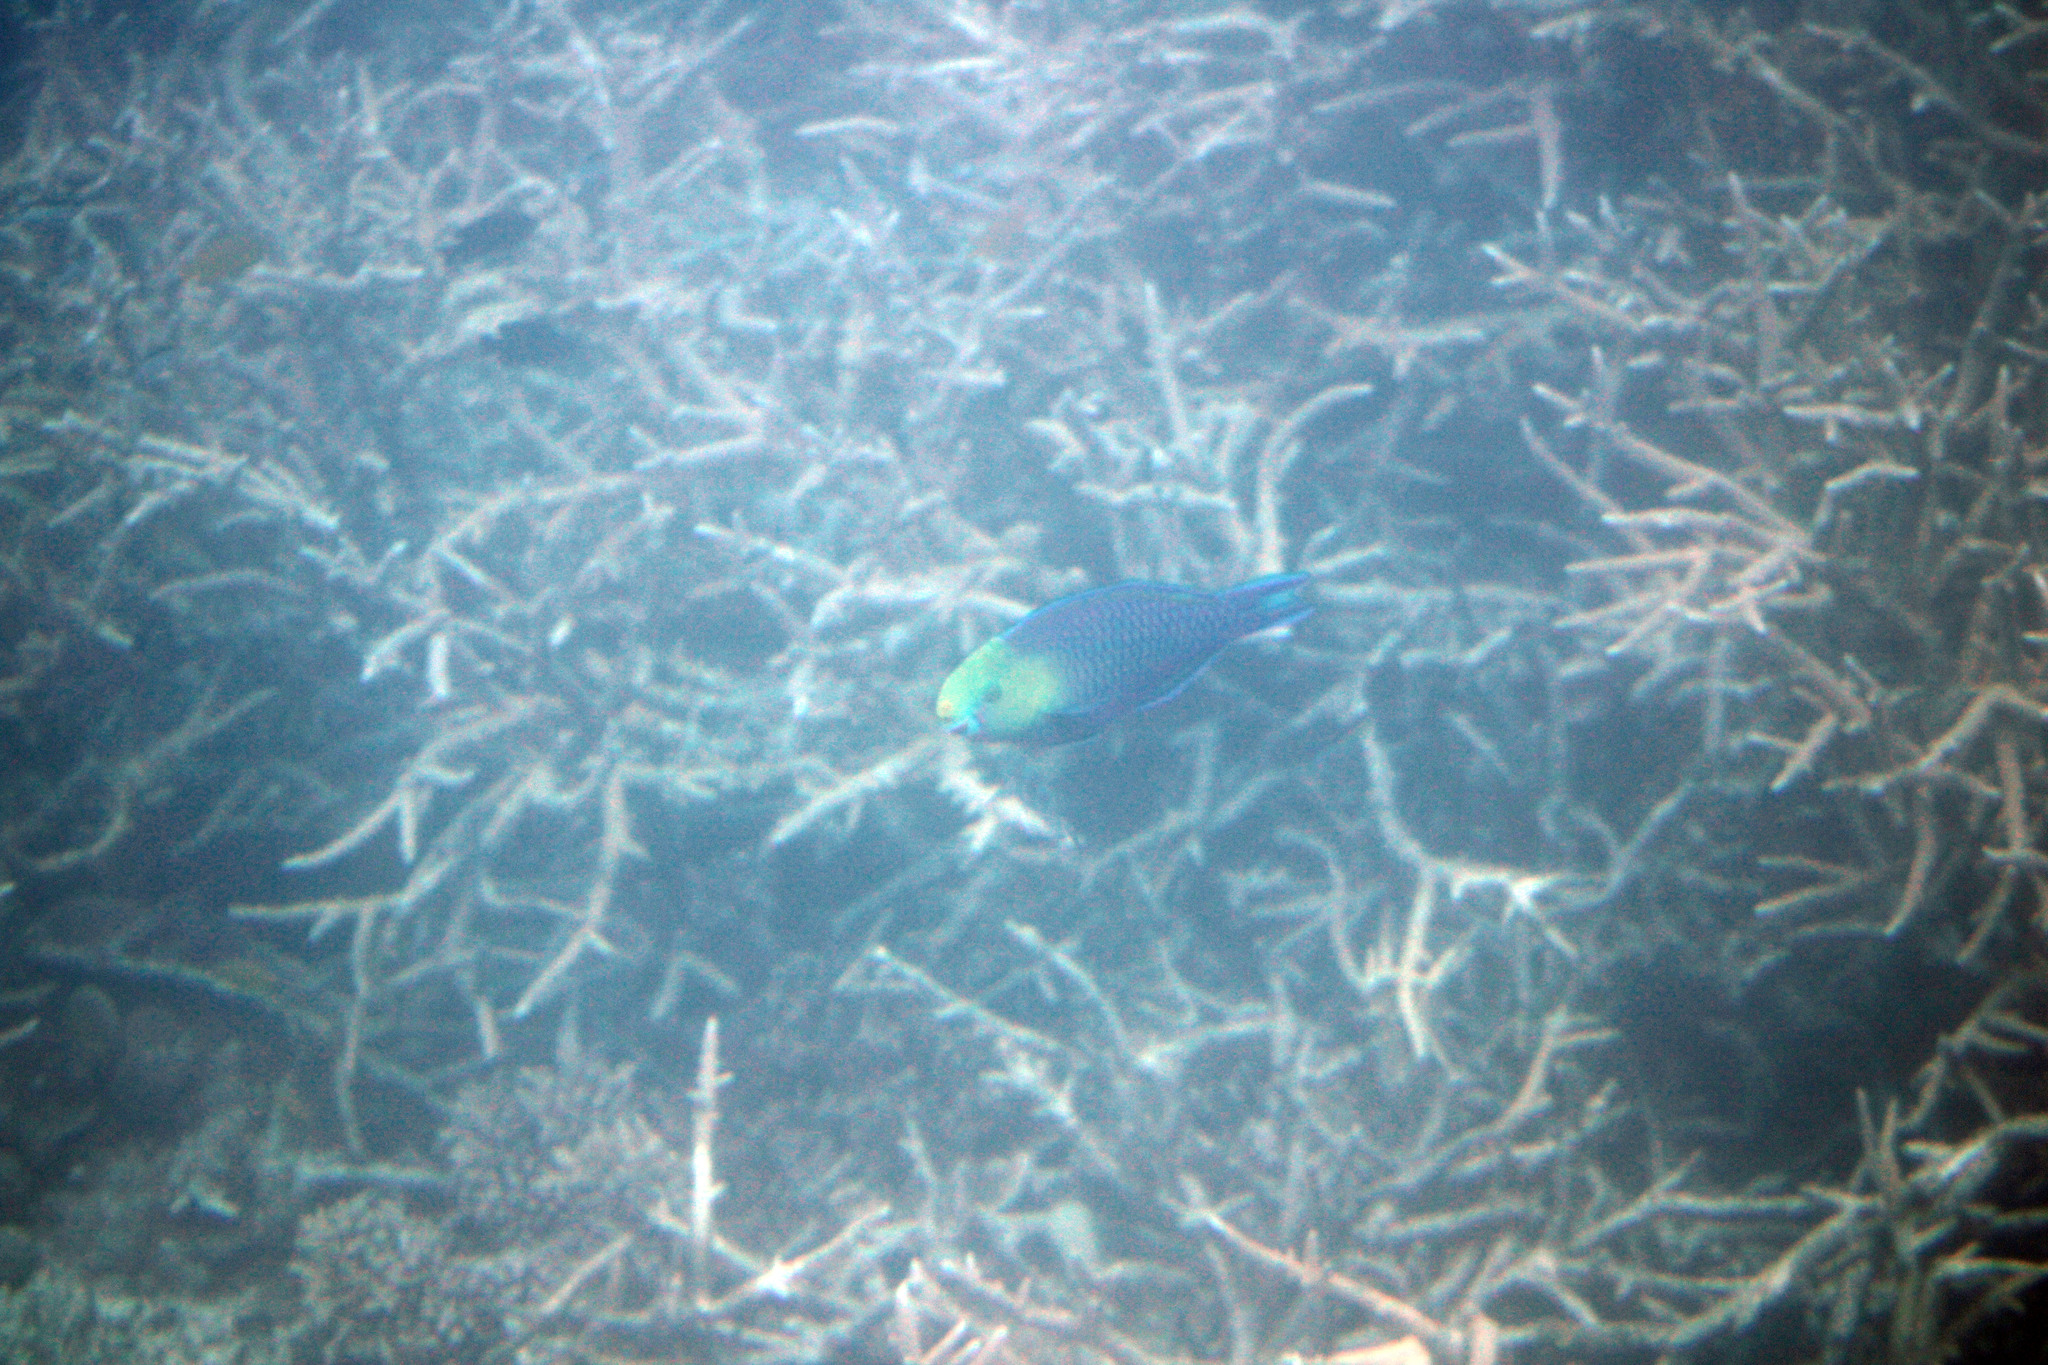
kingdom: Animalia
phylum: Chordata
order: Perciformes
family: Scaridae
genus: Scarus
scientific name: Scarus spinus
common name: Greensnout parrotfish
